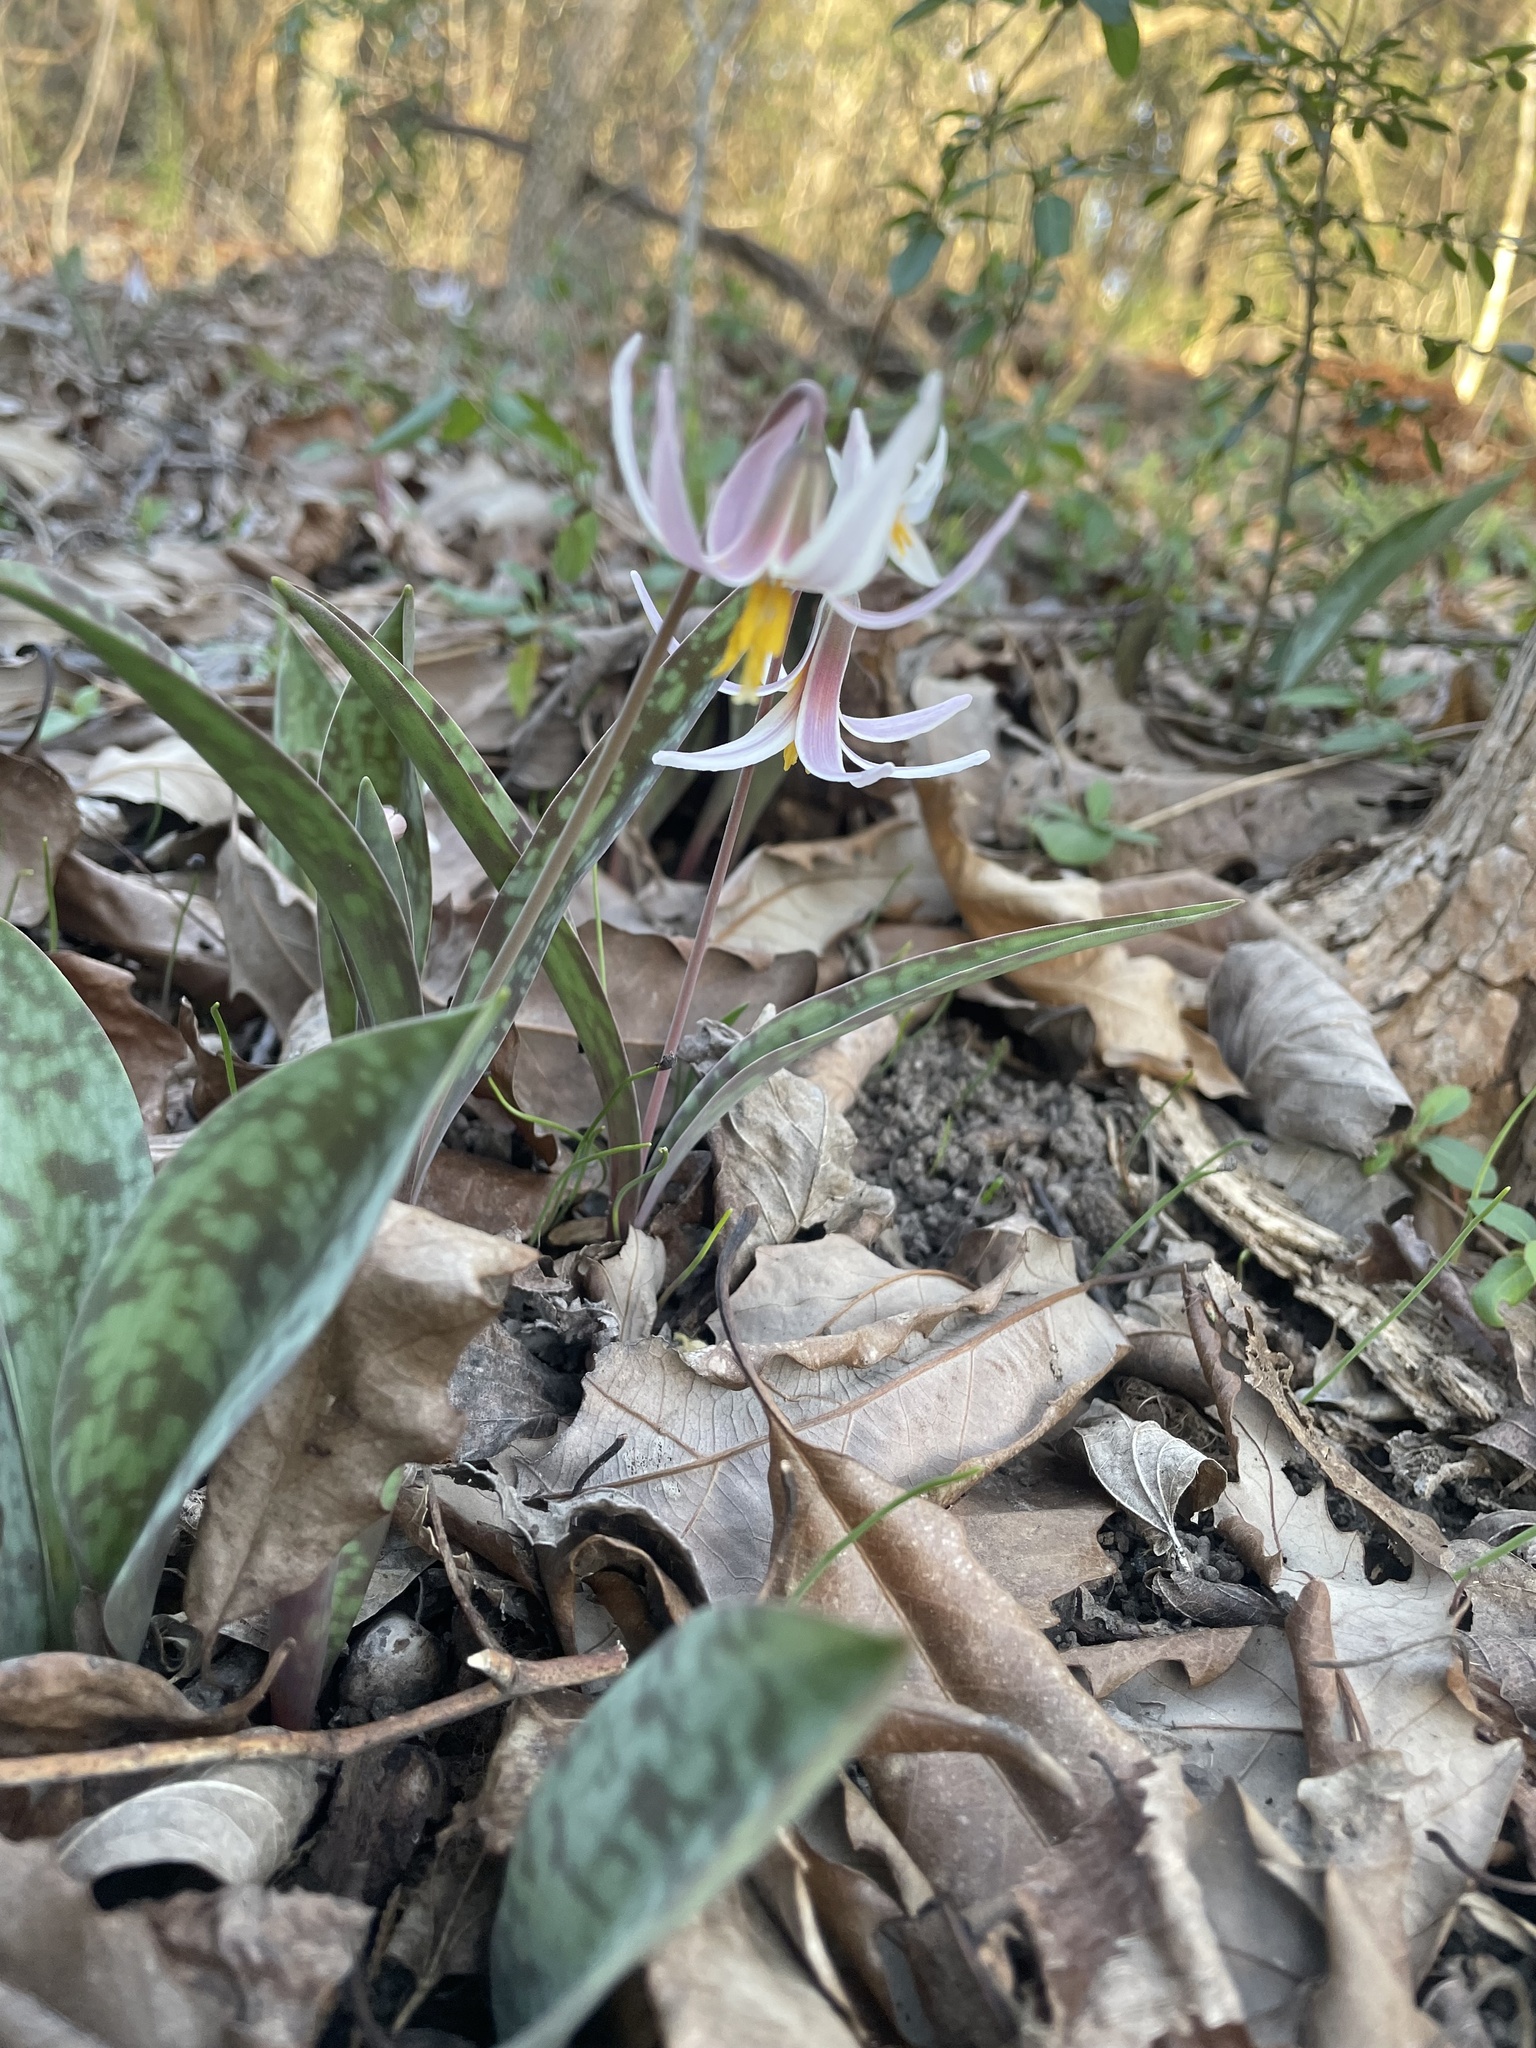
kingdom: Plantae
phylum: Tracheophyta
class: Liliopsida
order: Liliales
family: Liliaceae
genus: Erythronium
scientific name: Erythronium albidum
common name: White trout-lily
